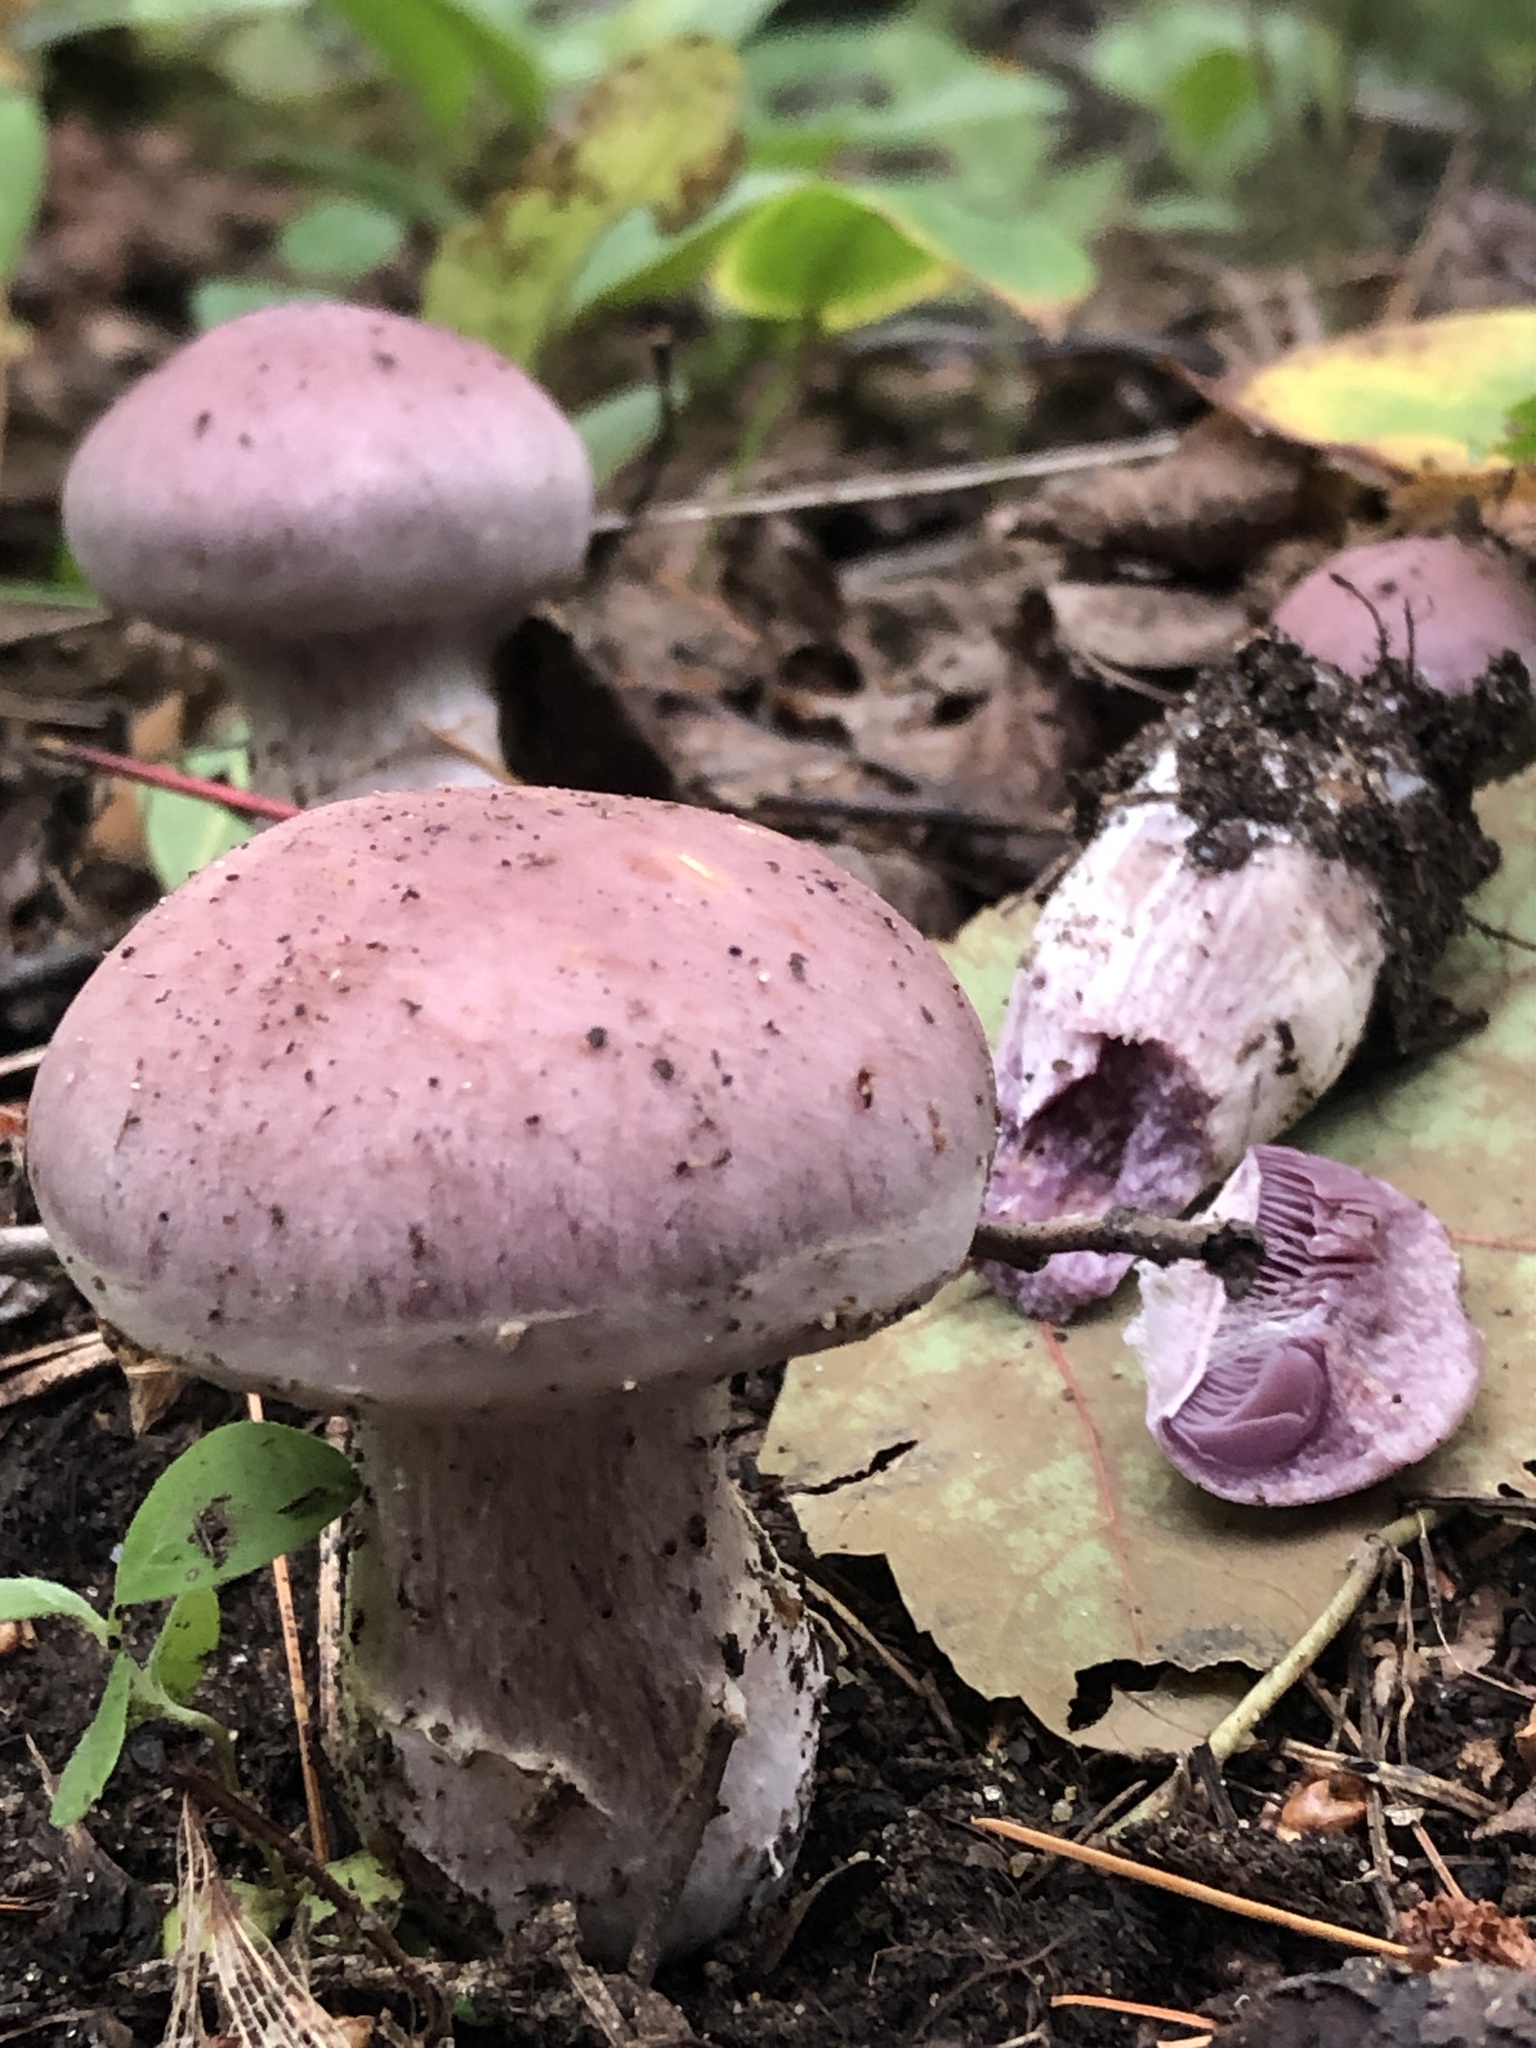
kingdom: Fungi
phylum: Basidiomycota
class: Agaricomycetes
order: Agaricales
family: Hydnangiaceae
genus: Laccaria
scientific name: Laccaria ochropurpurea
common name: Purple laccaria
